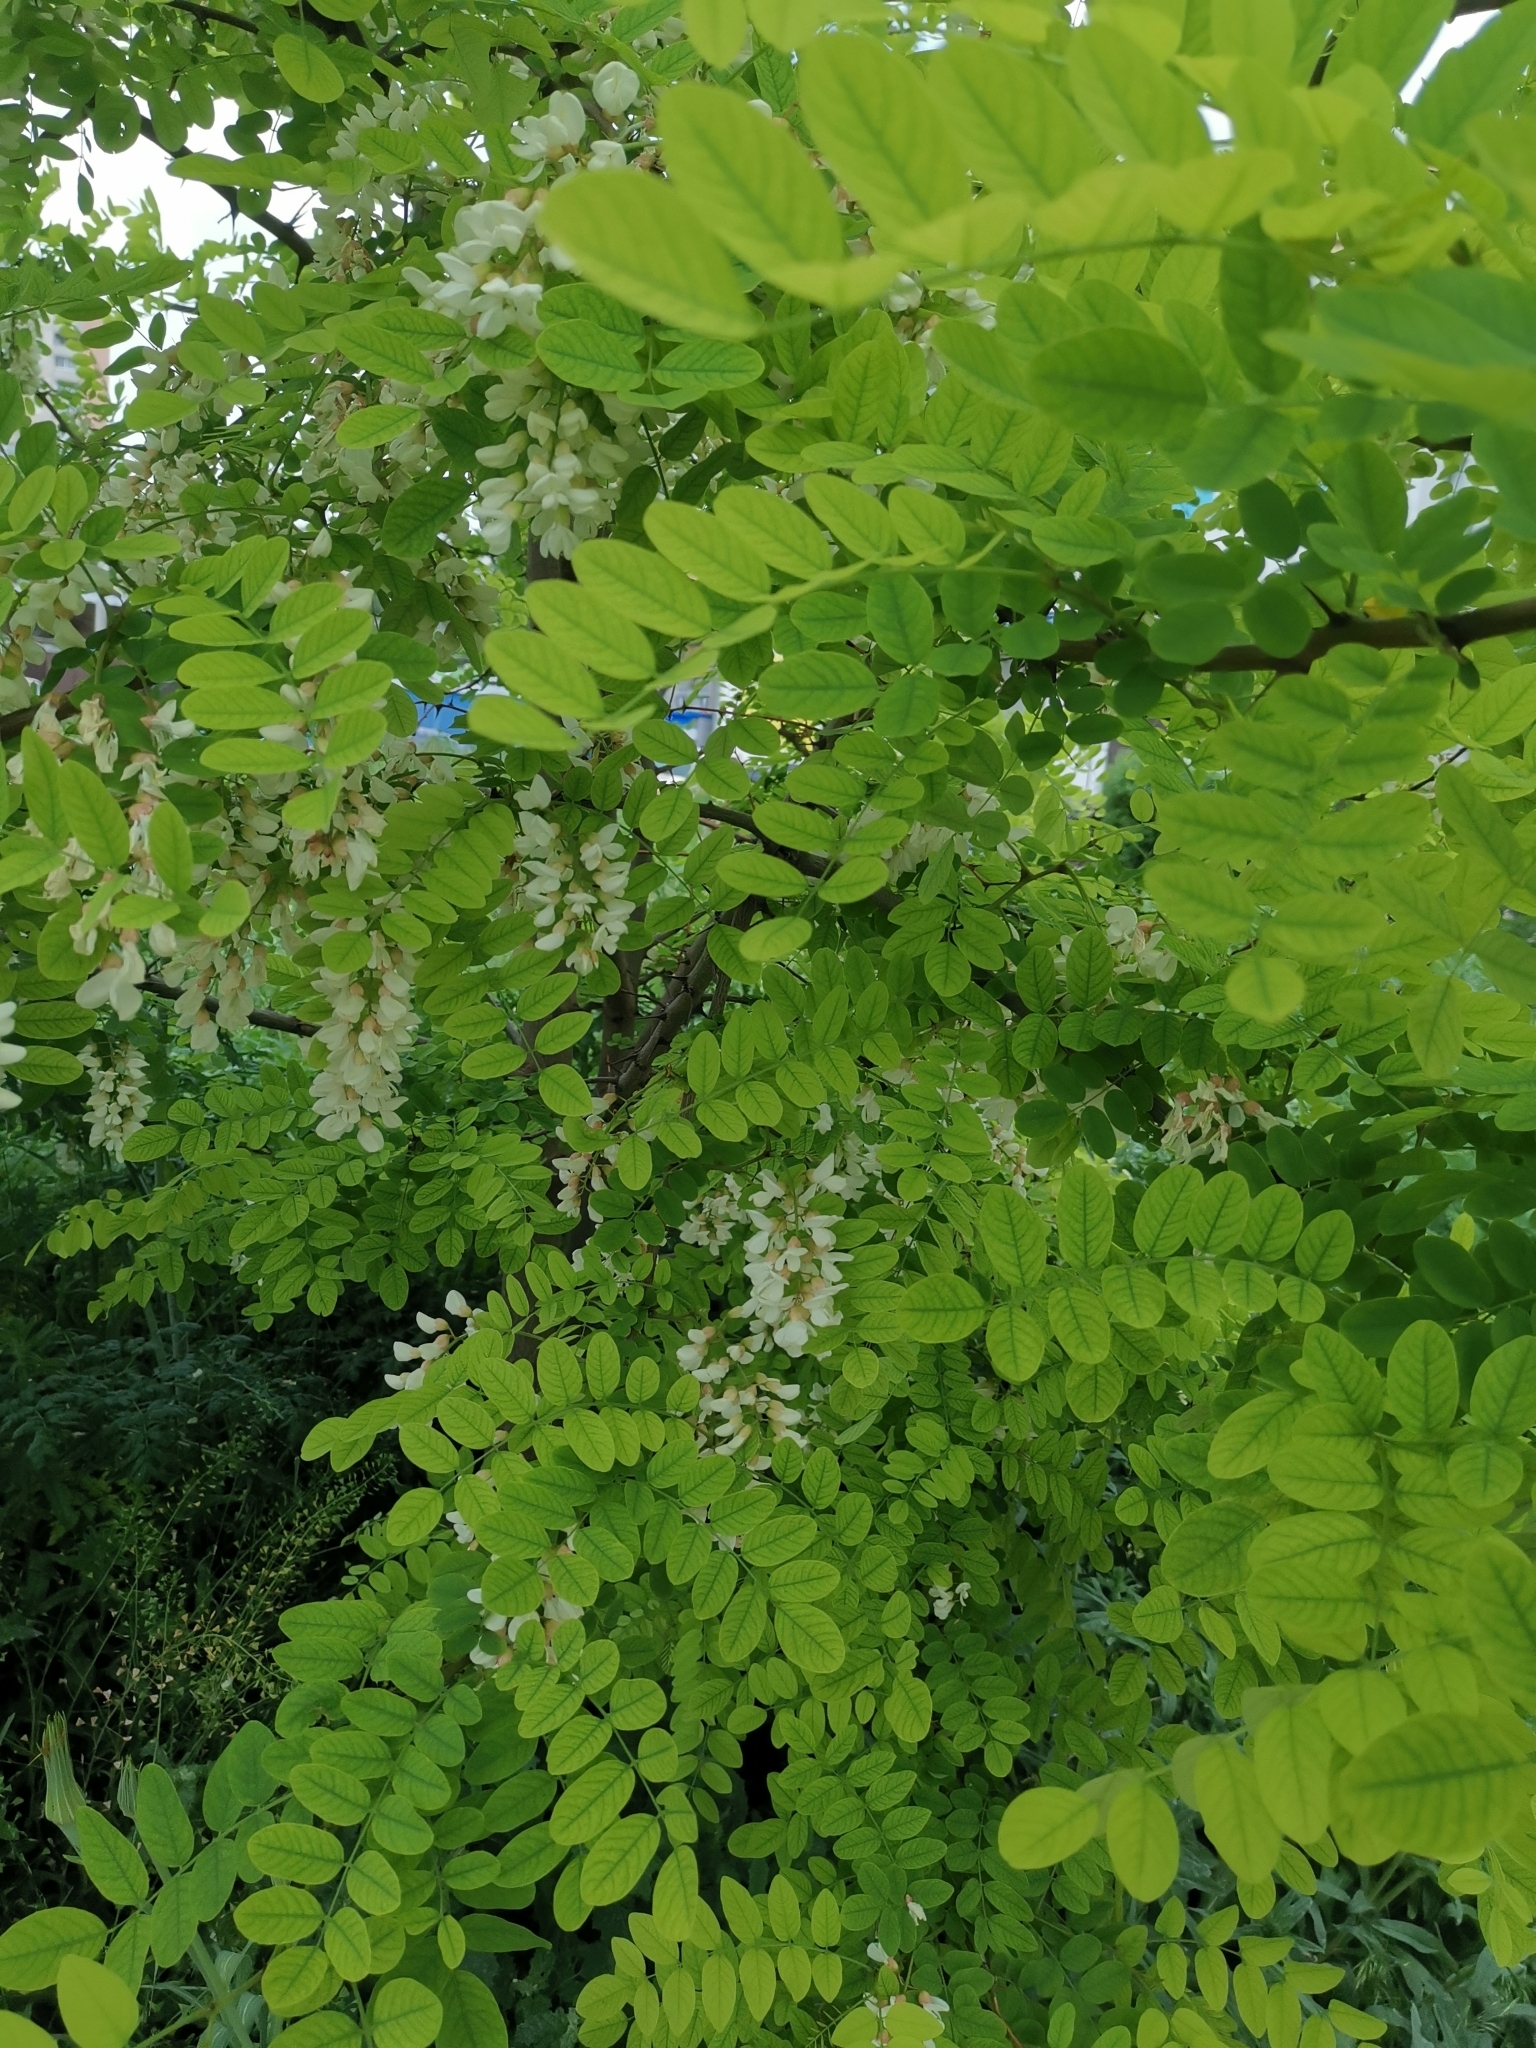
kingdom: Plantae
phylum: Tracheophyta
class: Magnoliopsida
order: Fabales
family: Fabaceae
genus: Robinia
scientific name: Robinia pseudoacacia
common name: Black locust
